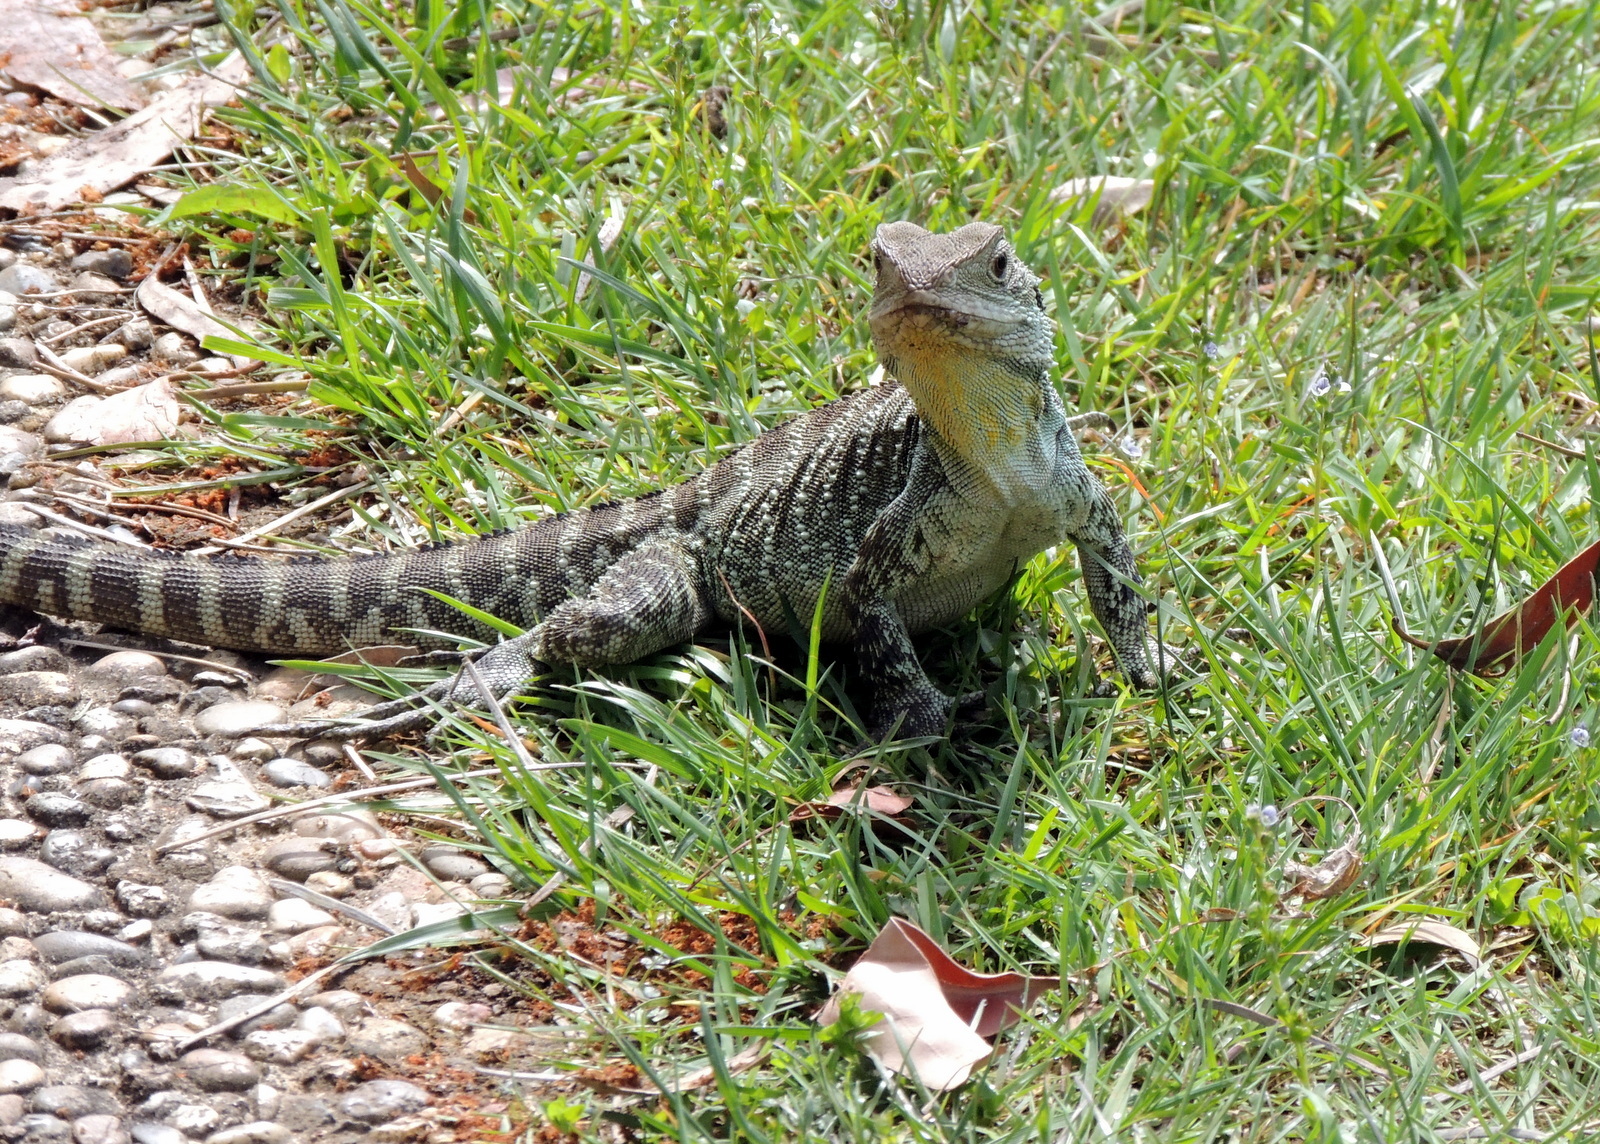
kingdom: Animalia
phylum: Chordata
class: Squamata
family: Agamidae
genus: Intellagama
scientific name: Intellagama lesueurii
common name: Eastern water dragon
